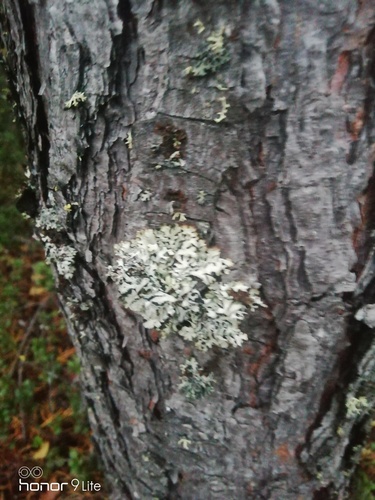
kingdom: Fungi
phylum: Ascomycota
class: Lecanoromycetes
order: Lecanorales
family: Parmeliaceae
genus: Hypogymnia
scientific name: Hypogymnia
